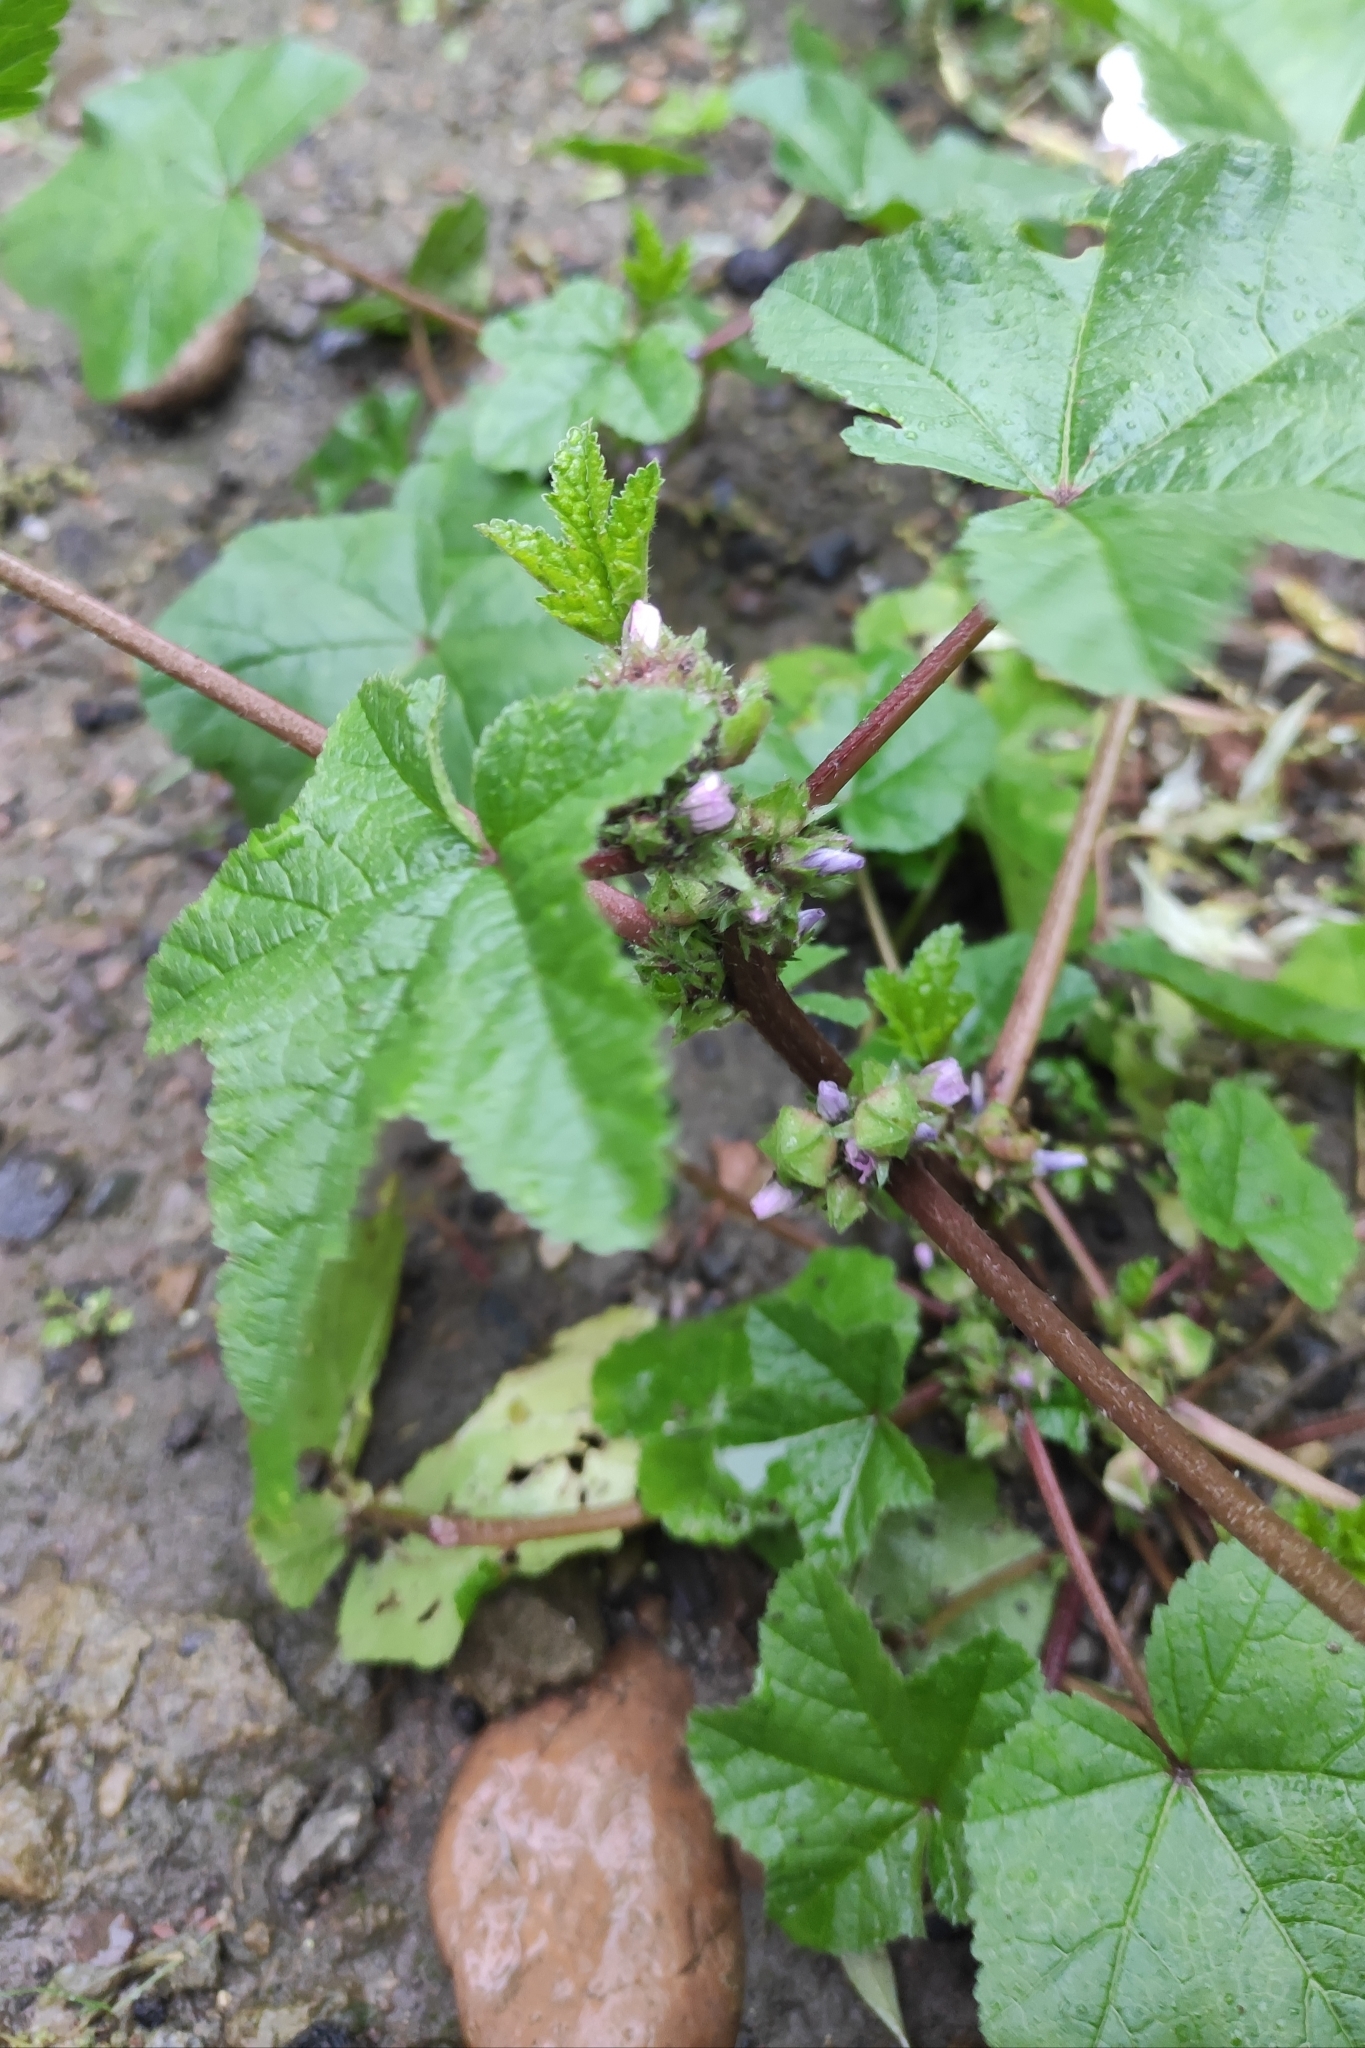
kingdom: Plantae
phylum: Tracheophyta
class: Magnoliopsida
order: Malvales
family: Malvaceae
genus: Malva
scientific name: Malva verticillata
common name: Chinese mallow
